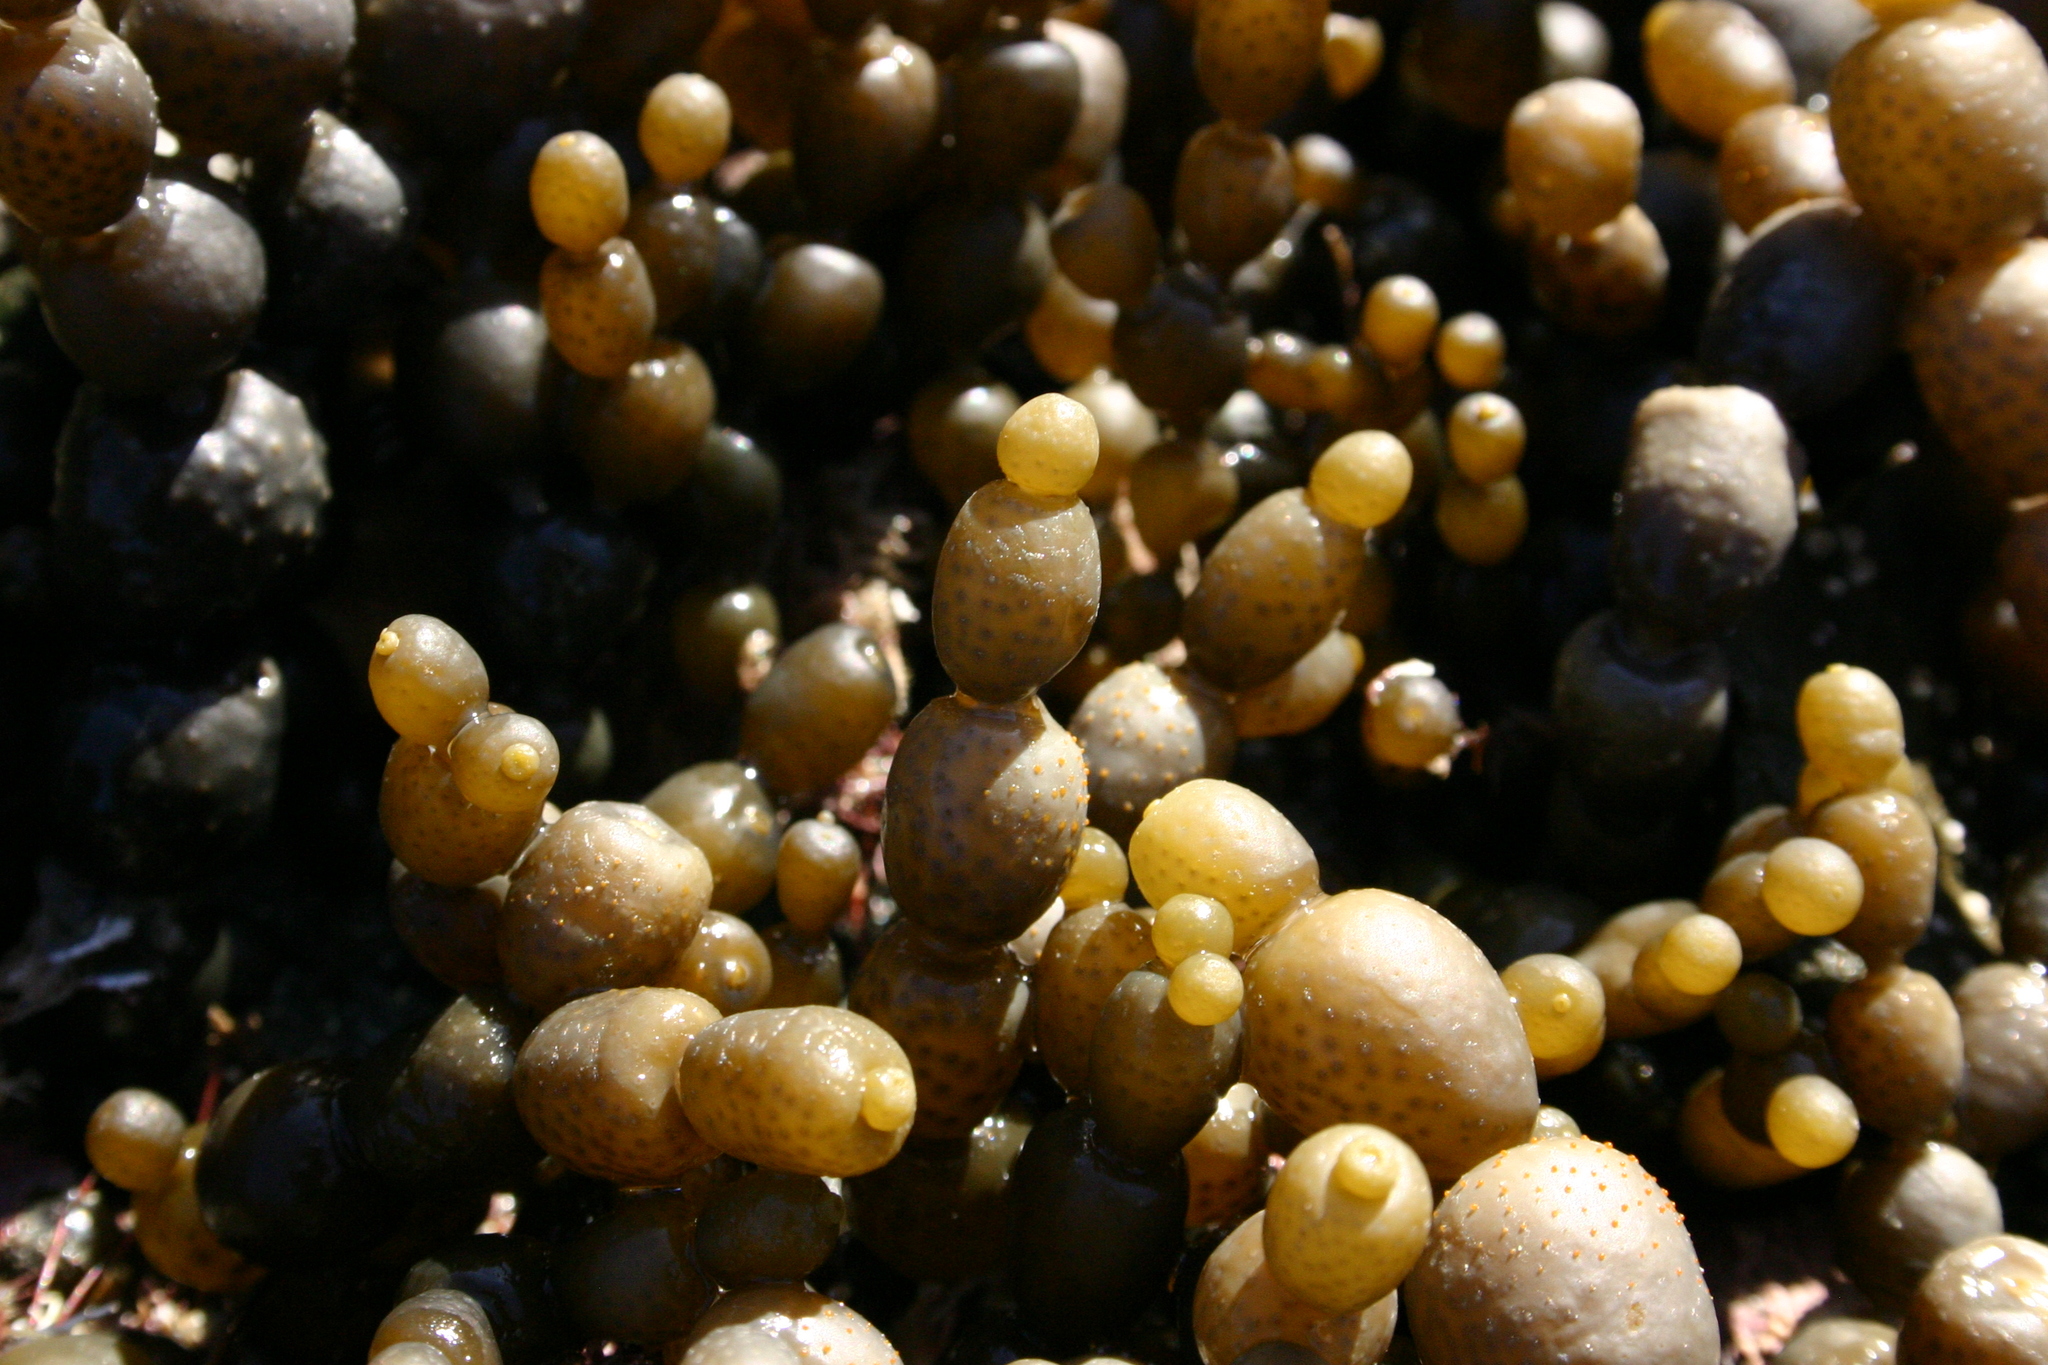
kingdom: Chromista
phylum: Ochrophyta
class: Phaeophyceae
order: Fucales
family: Hormosiraceae
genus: Hormosira
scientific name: Hormosira banksii
